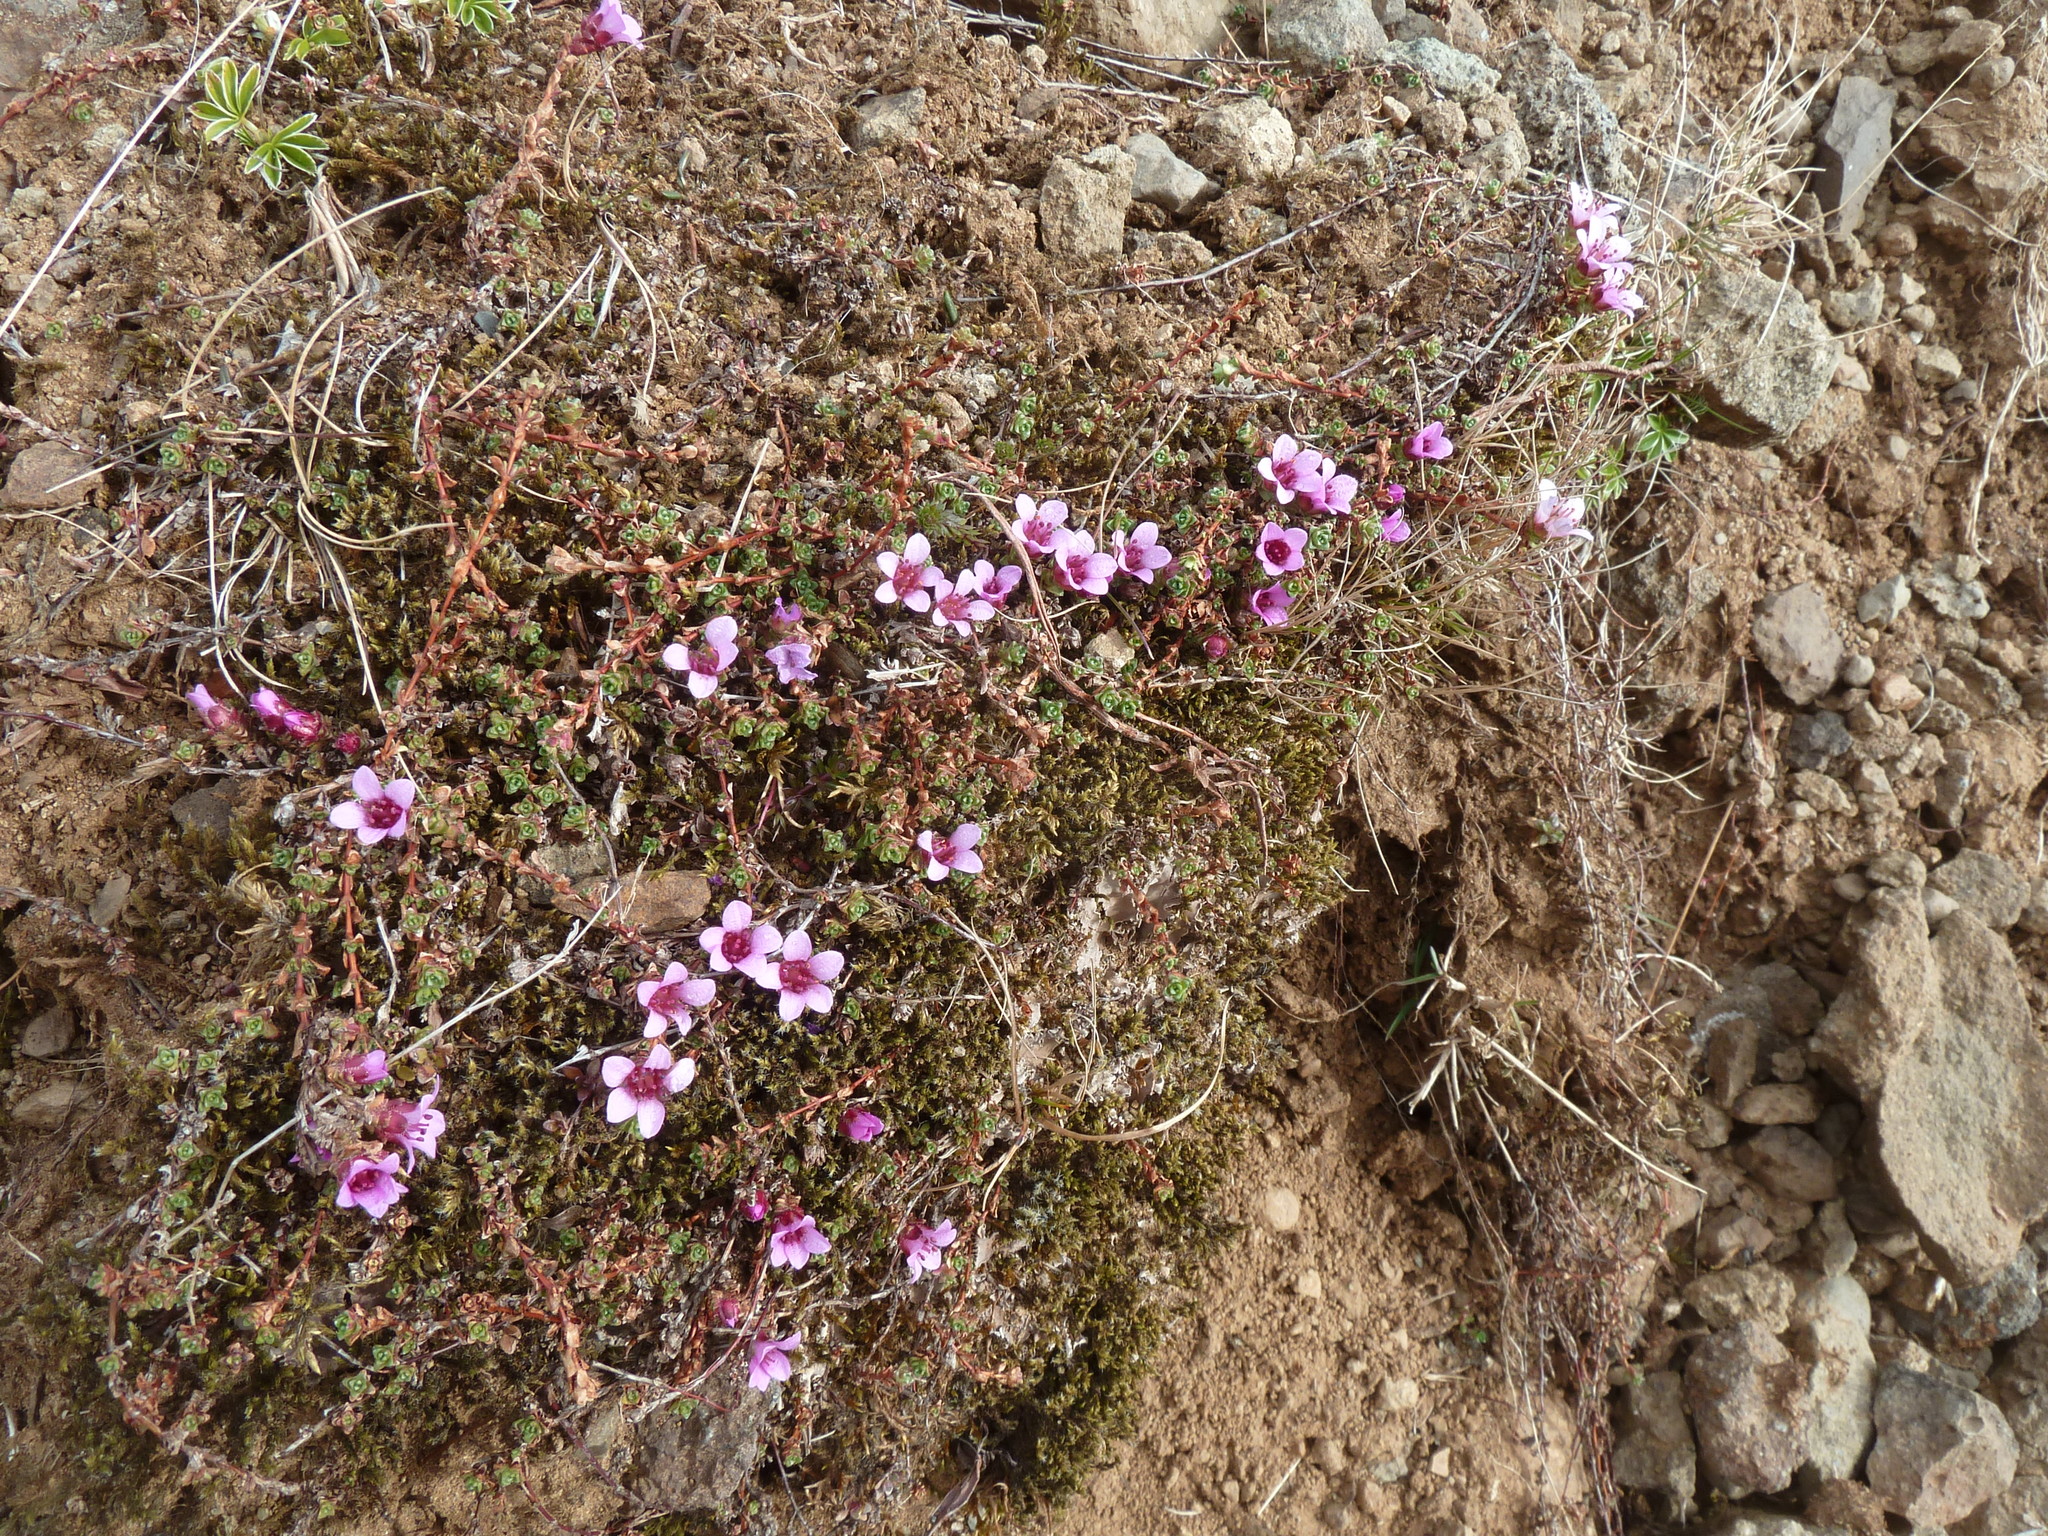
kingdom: Plantae
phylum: Tracheophyta
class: Magnoliopsida
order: Saxifragales
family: Saxifragaceae
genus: Saxifraga
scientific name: Saxifraga oppositifolia
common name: Purple saxifrage
